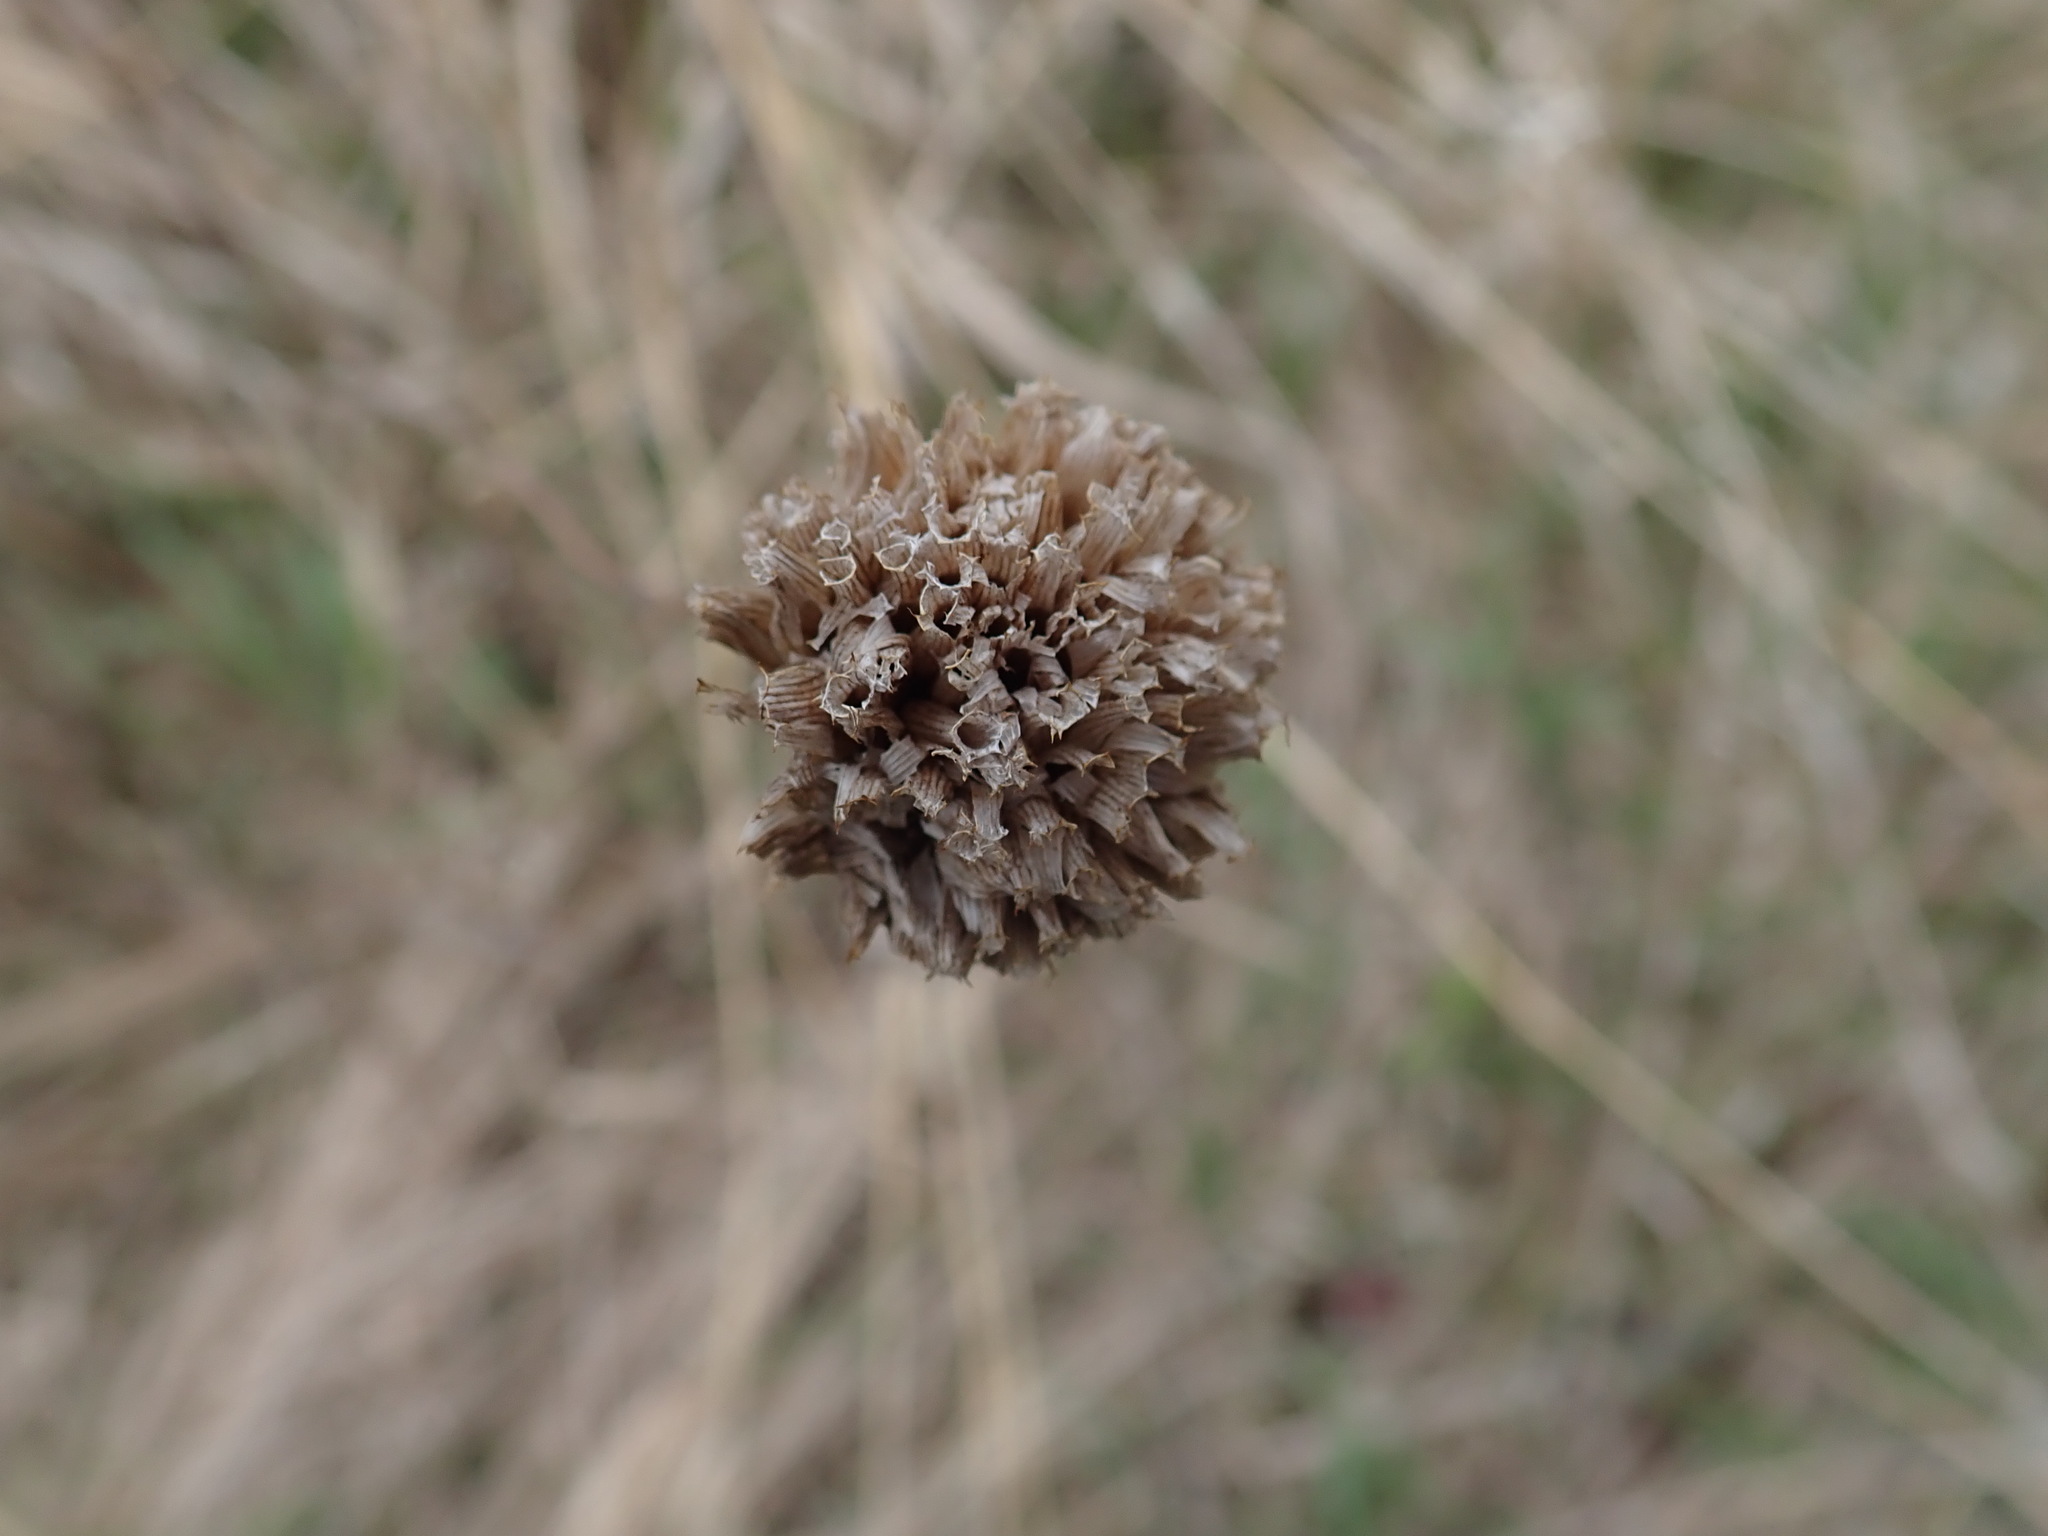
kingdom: Plantae
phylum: Tracheophyta
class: Magnoliopsida
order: Lamiales
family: Lamiaceae
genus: Monarda
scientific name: Monarda fistulosa
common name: Purple beebalm
